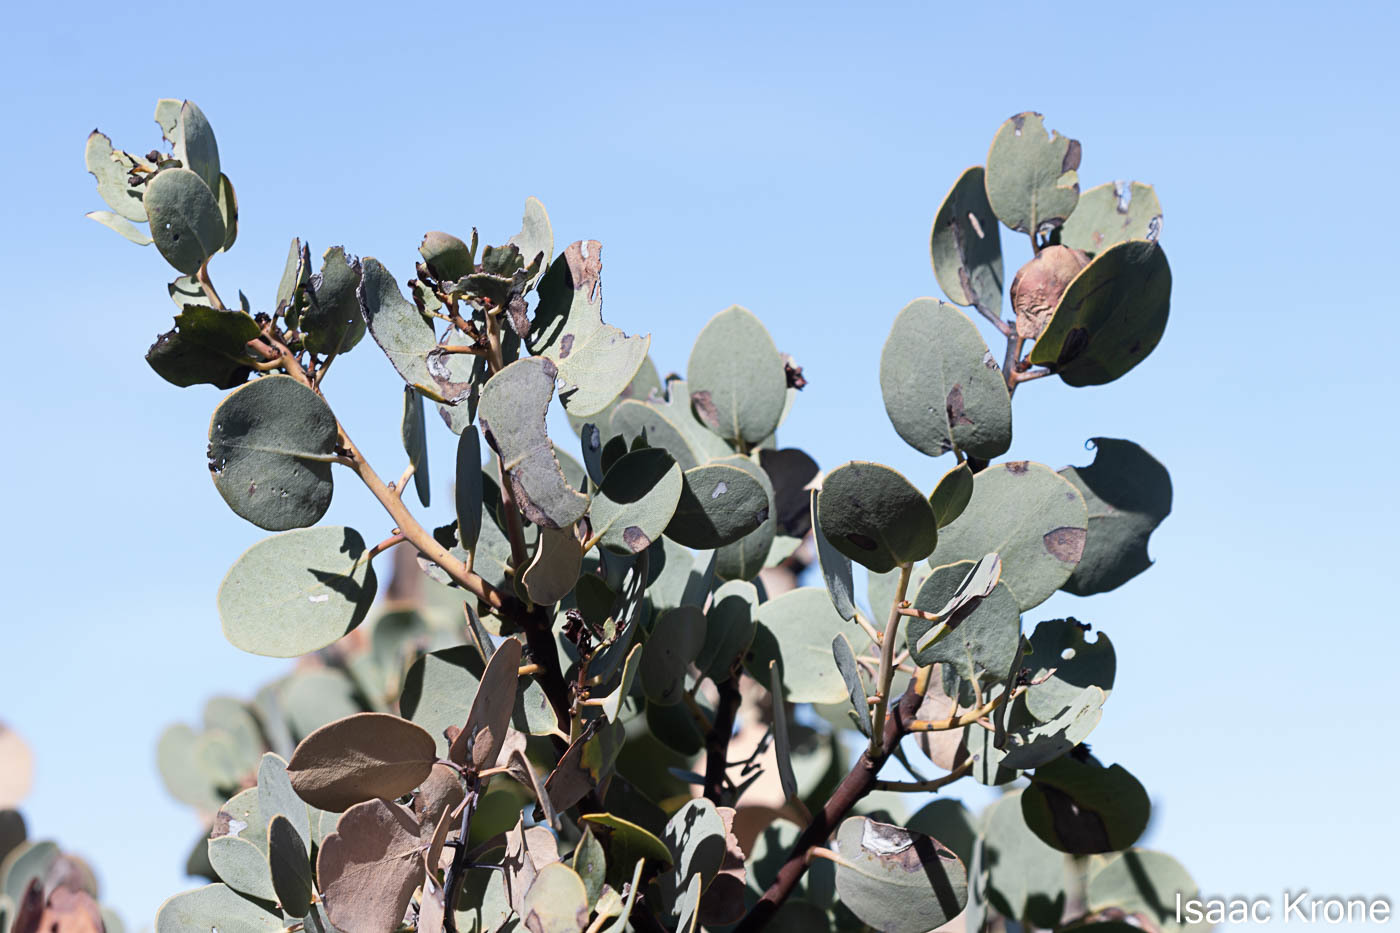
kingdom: Plantae
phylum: Tracheophyta
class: Magnoliopsida
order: Ericales
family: Ericaceae
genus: Arctostaphylos
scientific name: Arctostaphylos glauca
